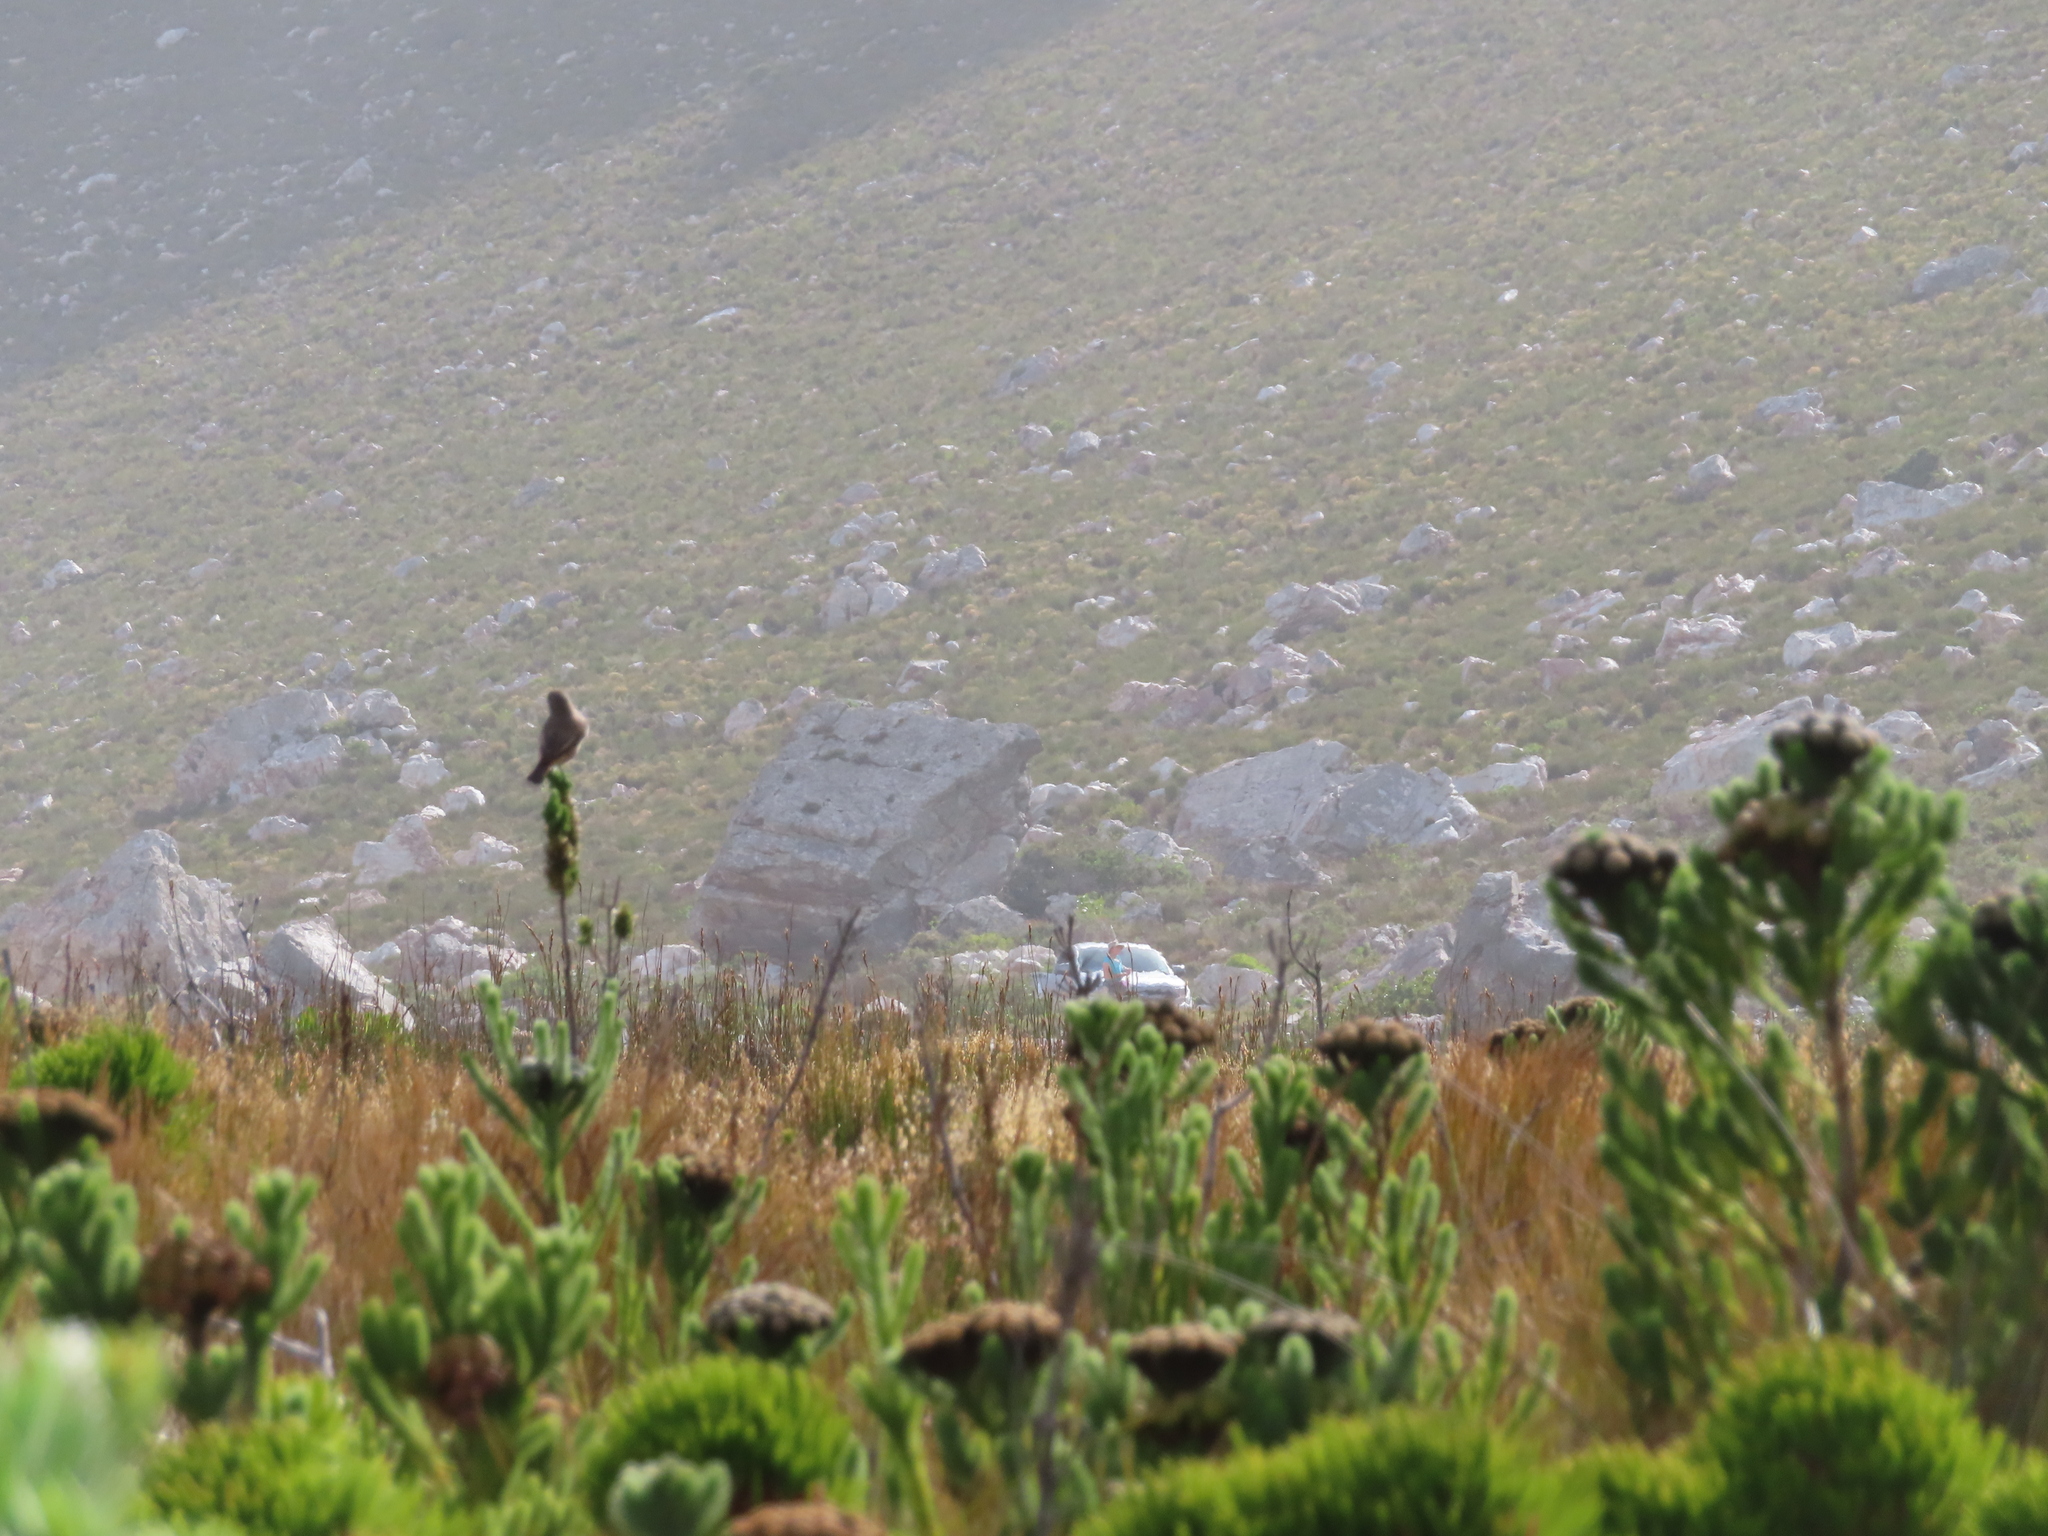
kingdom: Animalia
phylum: Chordata
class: Aves
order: Passeriformes
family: Muscicapidae
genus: Oenanthe
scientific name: Oenanthe familiaris
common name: Familiar chat
